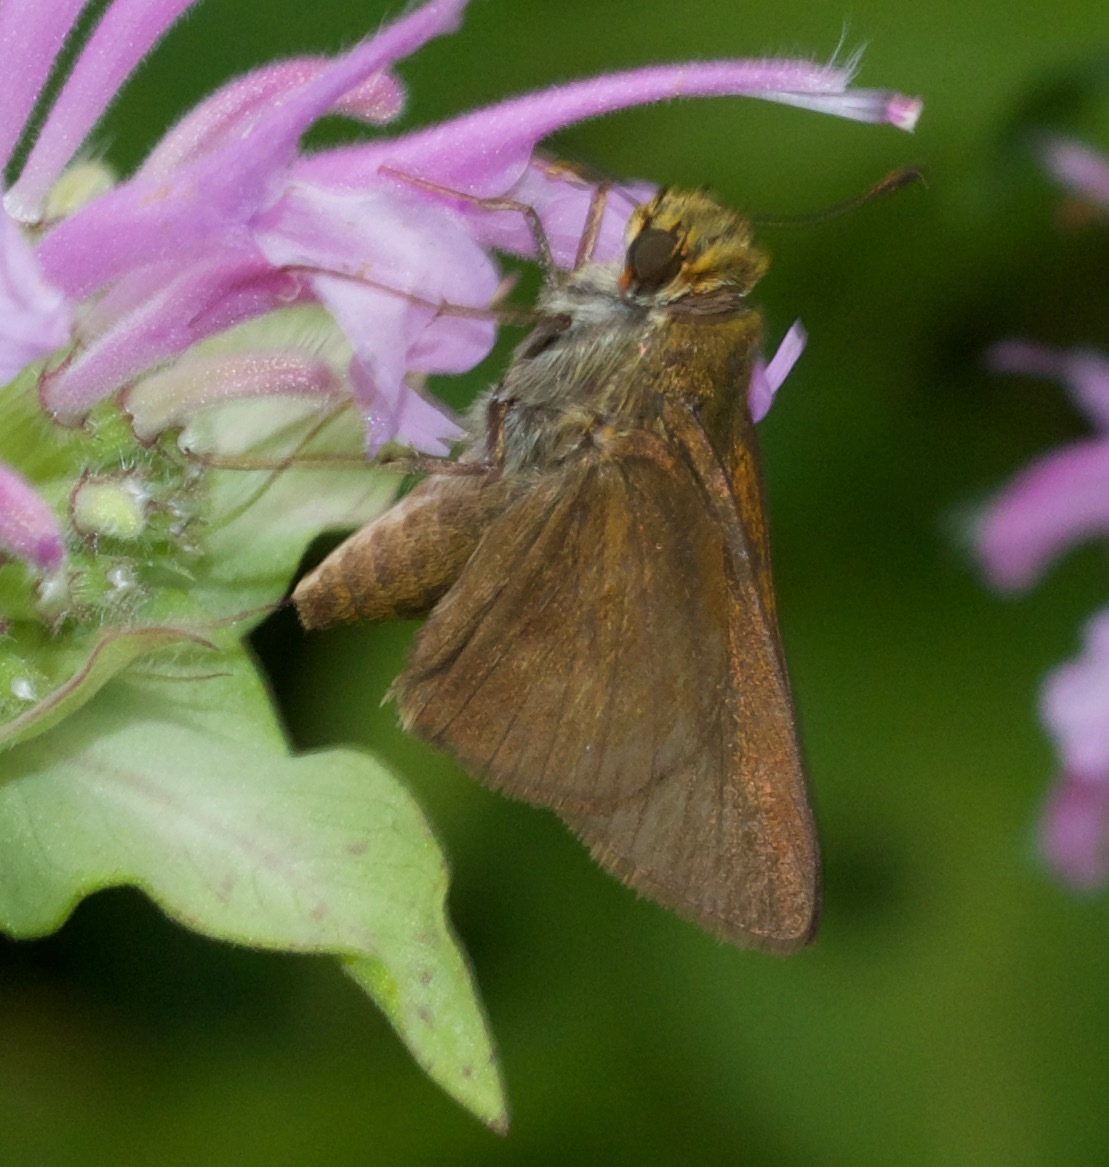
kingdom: Animalia
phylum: Arthropoda
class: Insecta
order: Lepidoptera
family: Hesperiidae
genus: Euphyes
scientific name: Euphyes vestris
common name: Dun skipper
